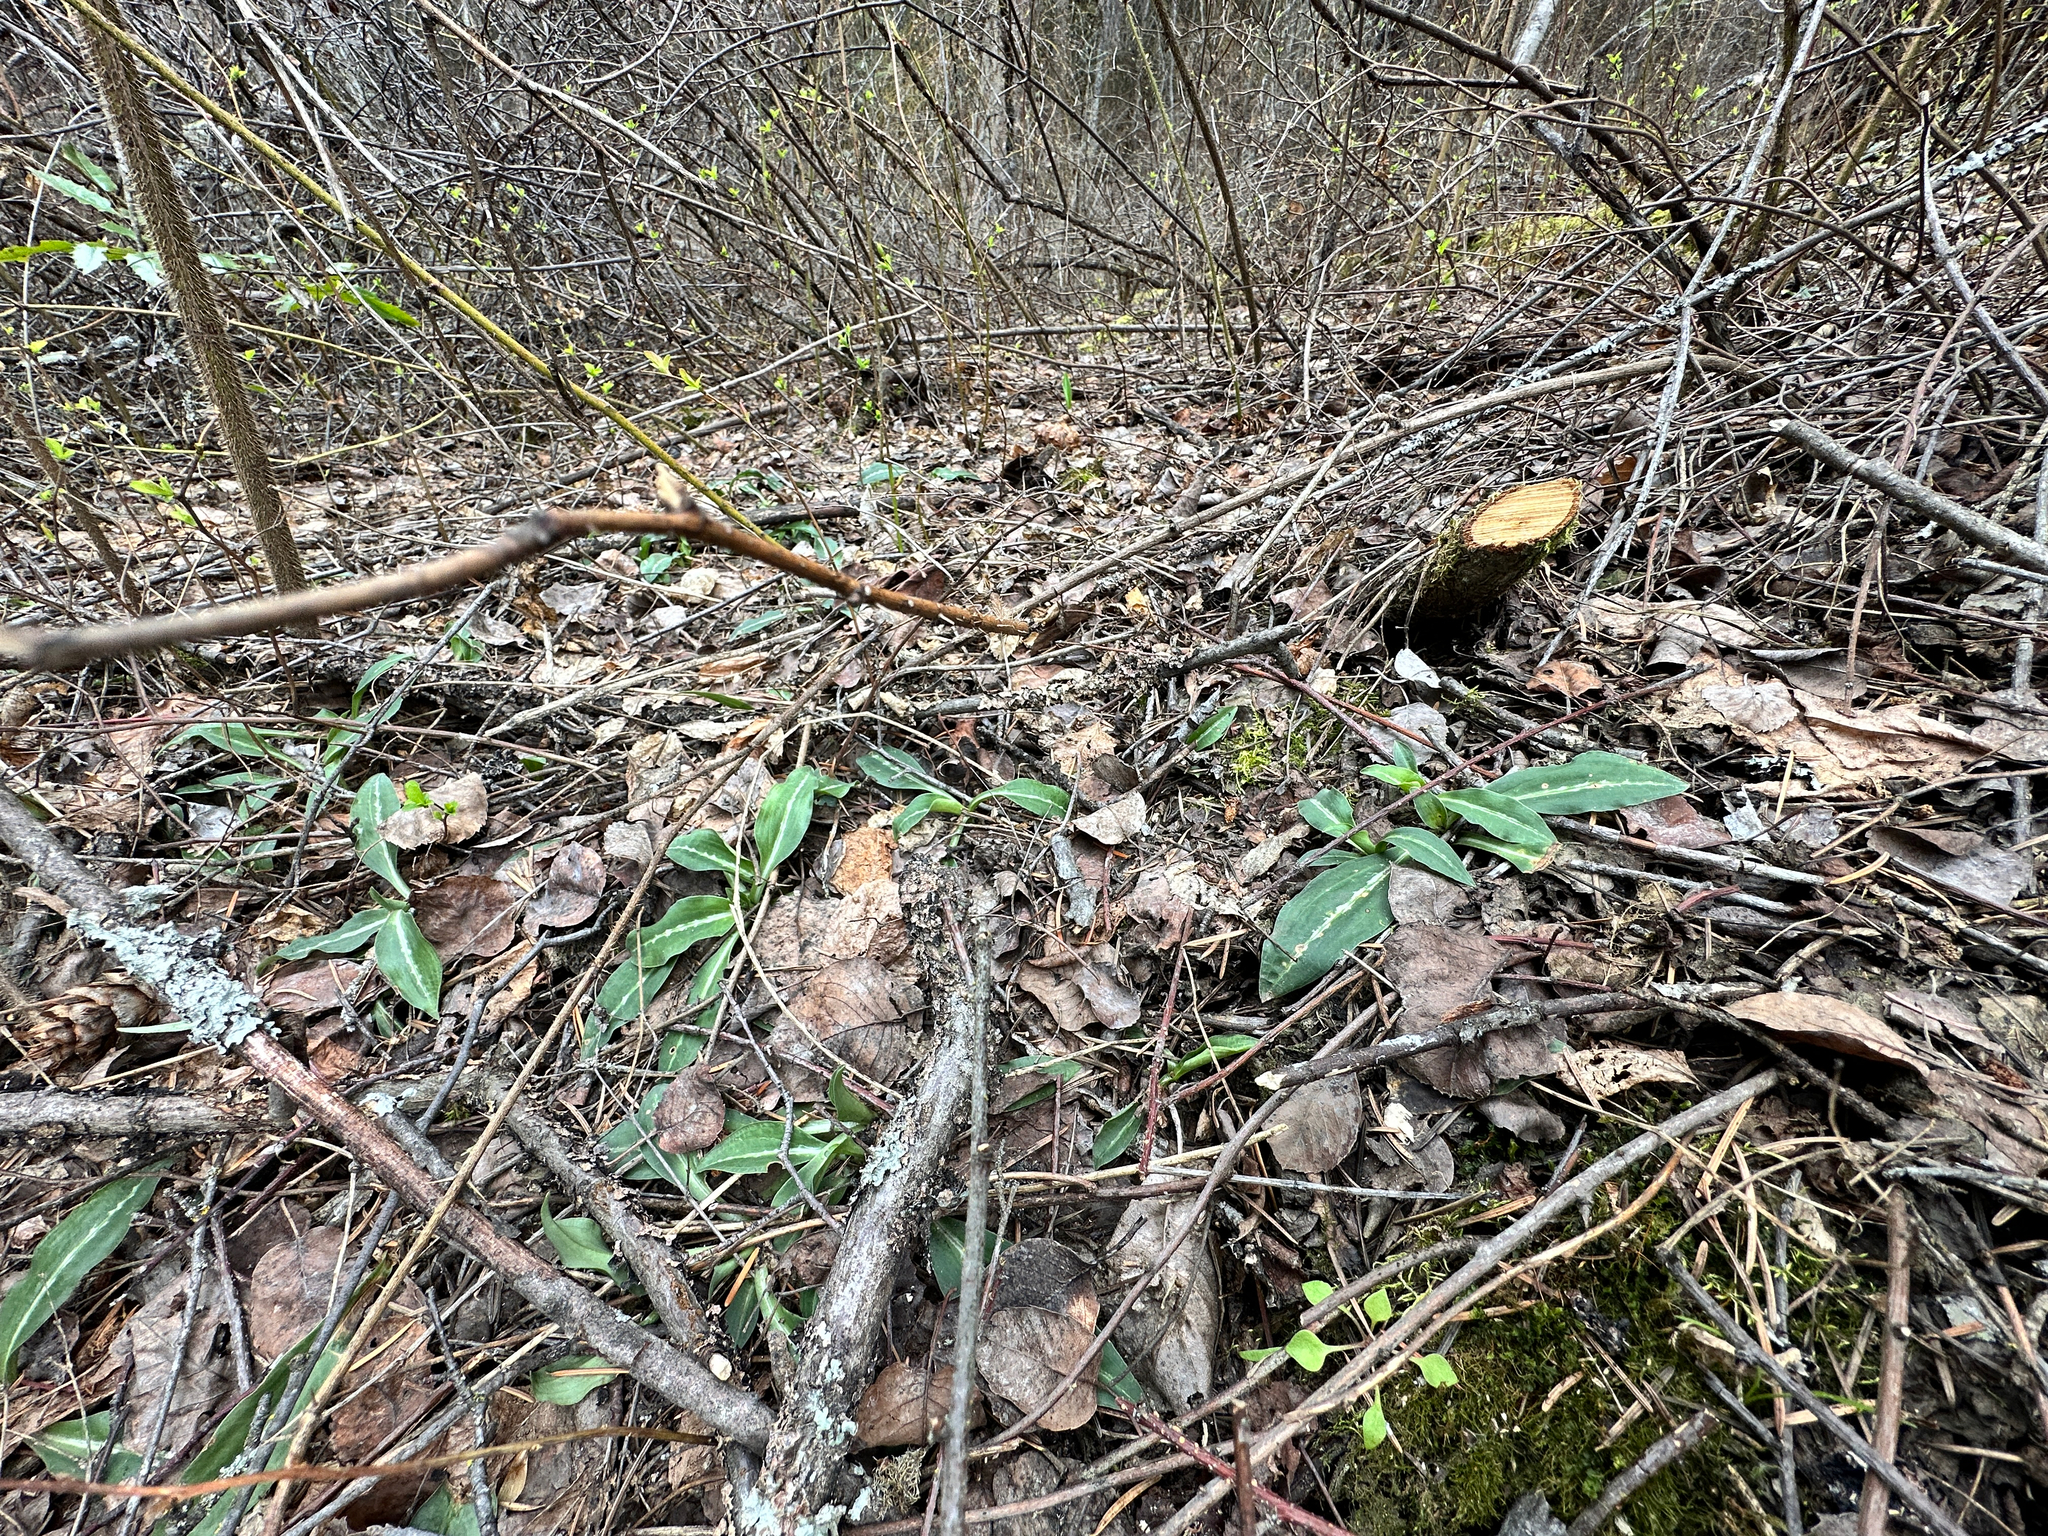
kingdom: Plantae
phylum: Tracheophyta
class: Liliopsida
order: Asparagales
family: Orchidaceae
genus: Goodyera
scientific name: Goodyera oblongifolia
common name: Giant rattlesnake-plantain
